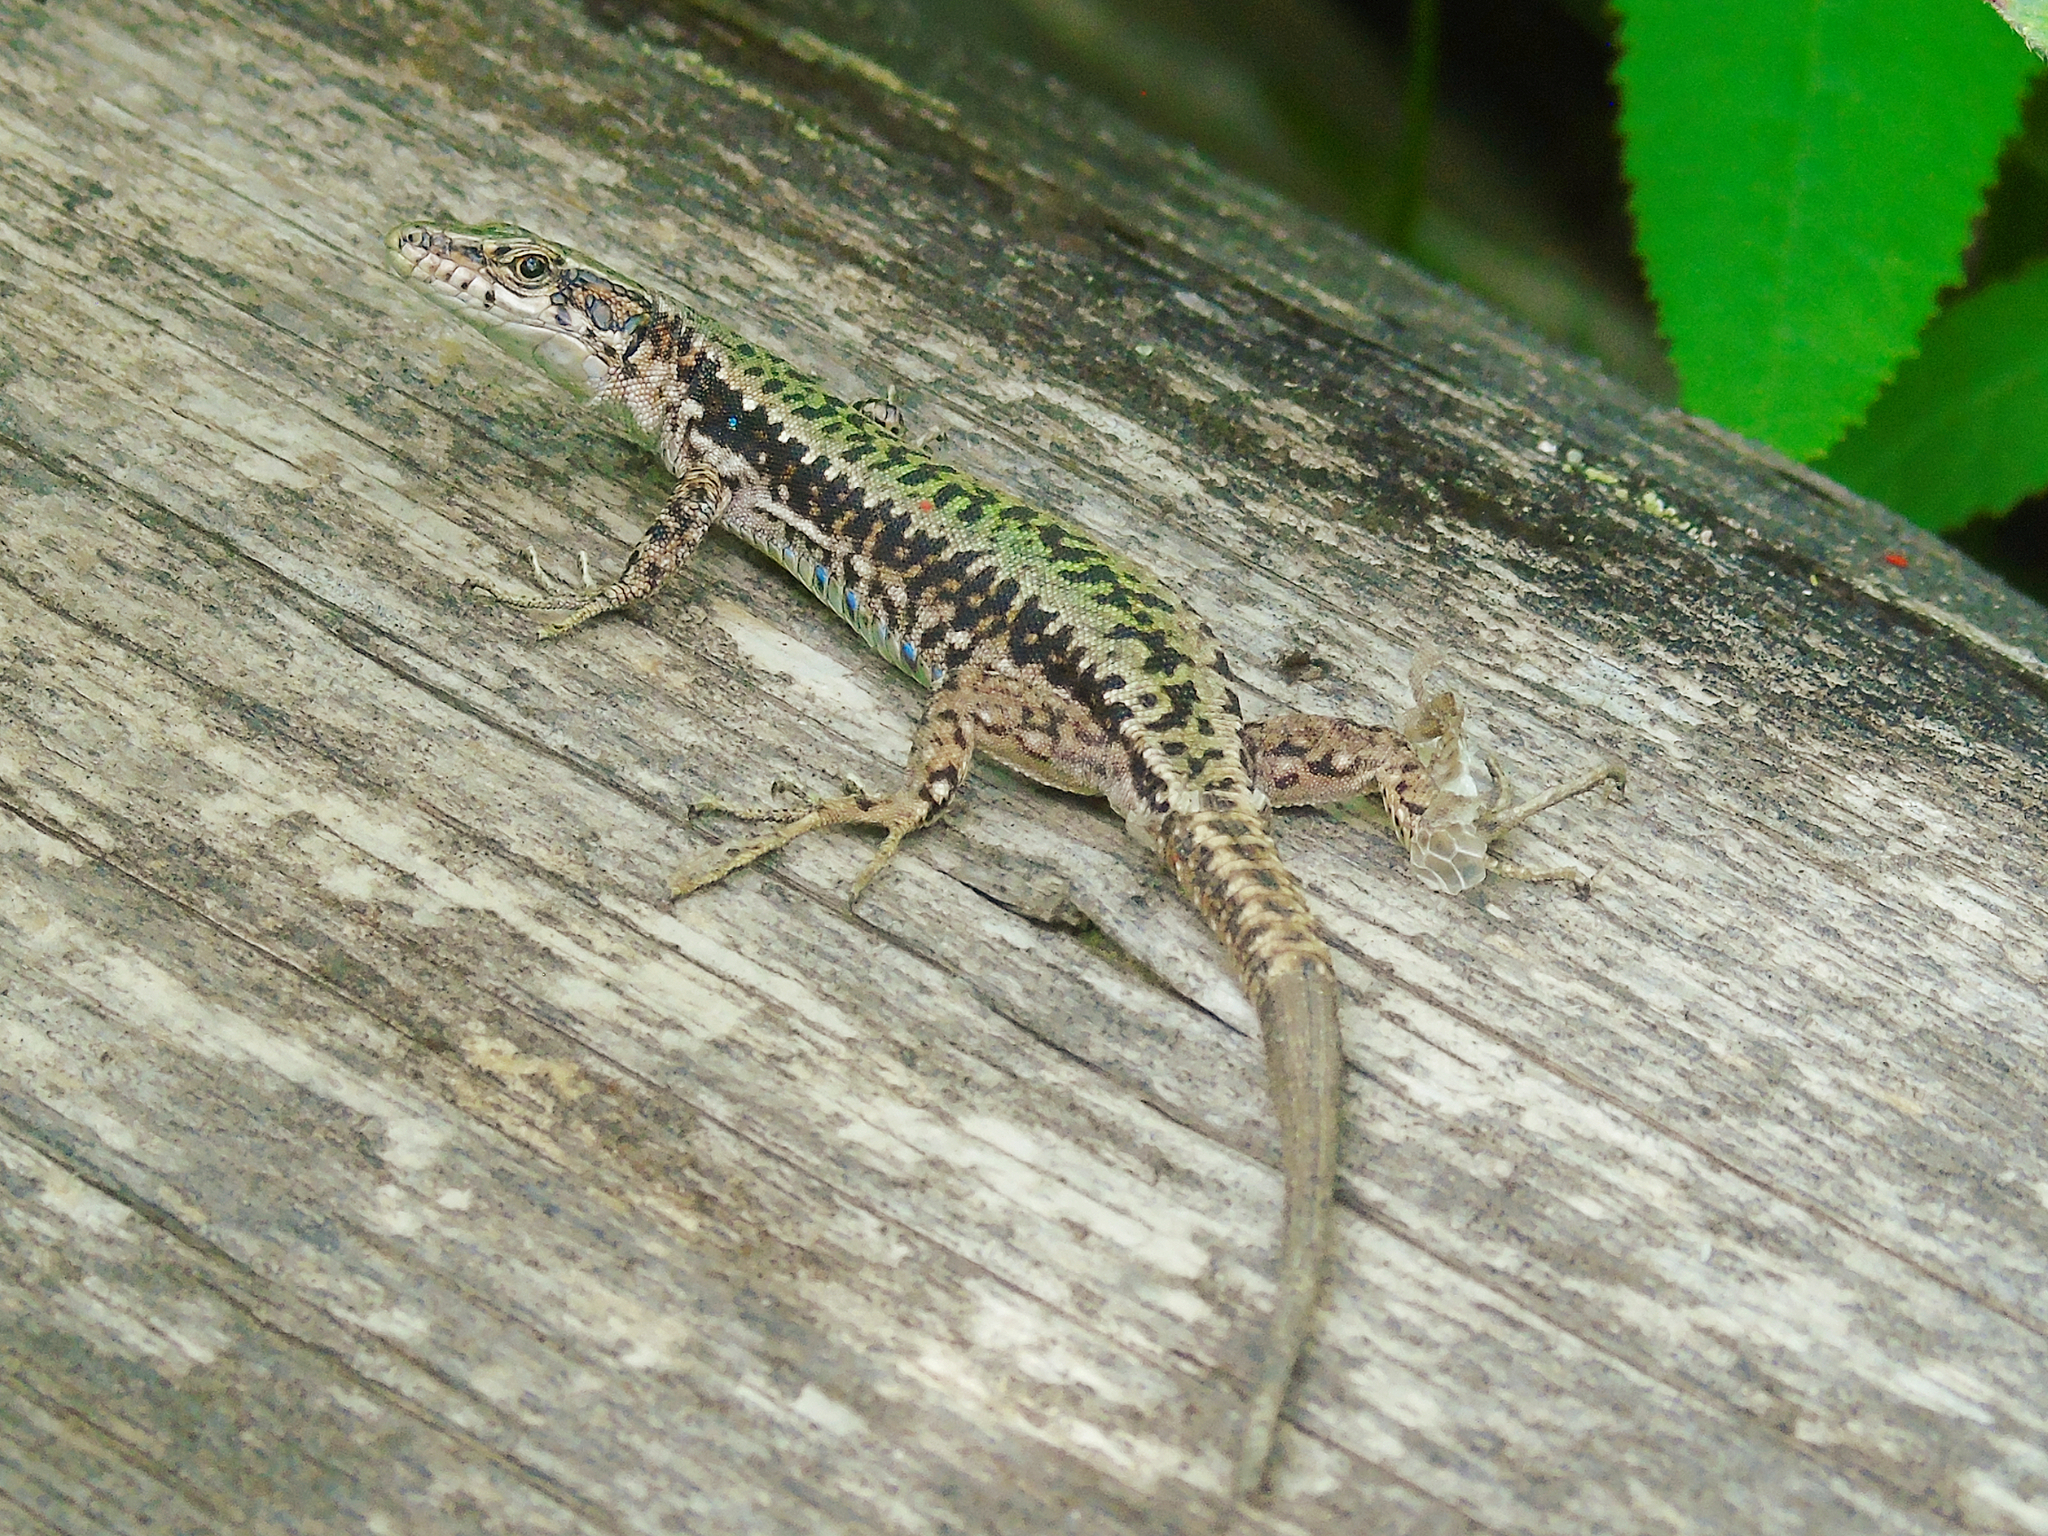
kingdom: Animalia
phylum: Chordata
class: Squamata
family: Lacertidae
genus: Darevskia
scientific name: Darevskia brauneri
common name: Brauner's rock lizard
